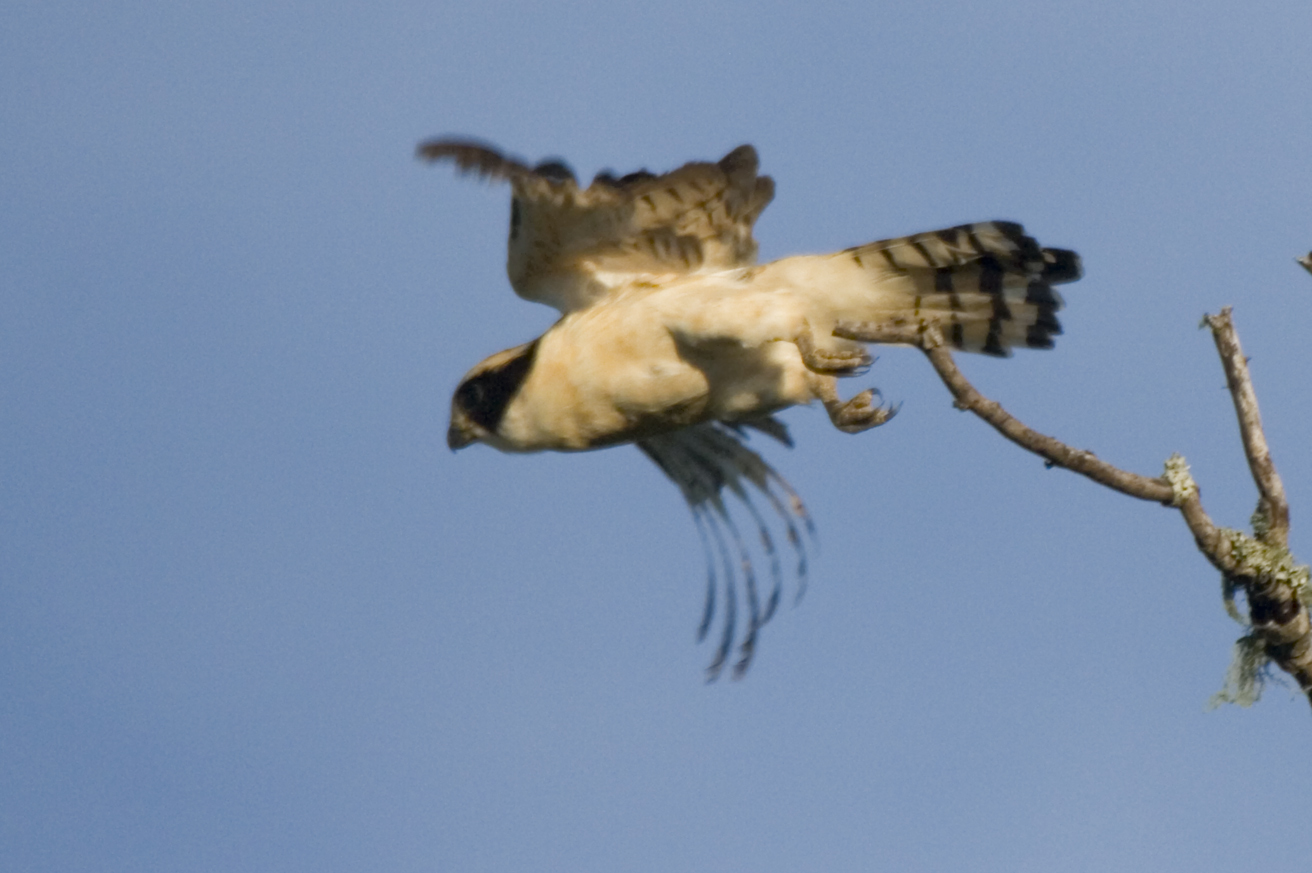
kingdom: Animalia
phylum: Chordata
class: Aves
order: Falconiformes
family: Falconidae
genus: Herpetotheres
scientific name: Herpetotheres cachinnans
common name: Laughing falcon
